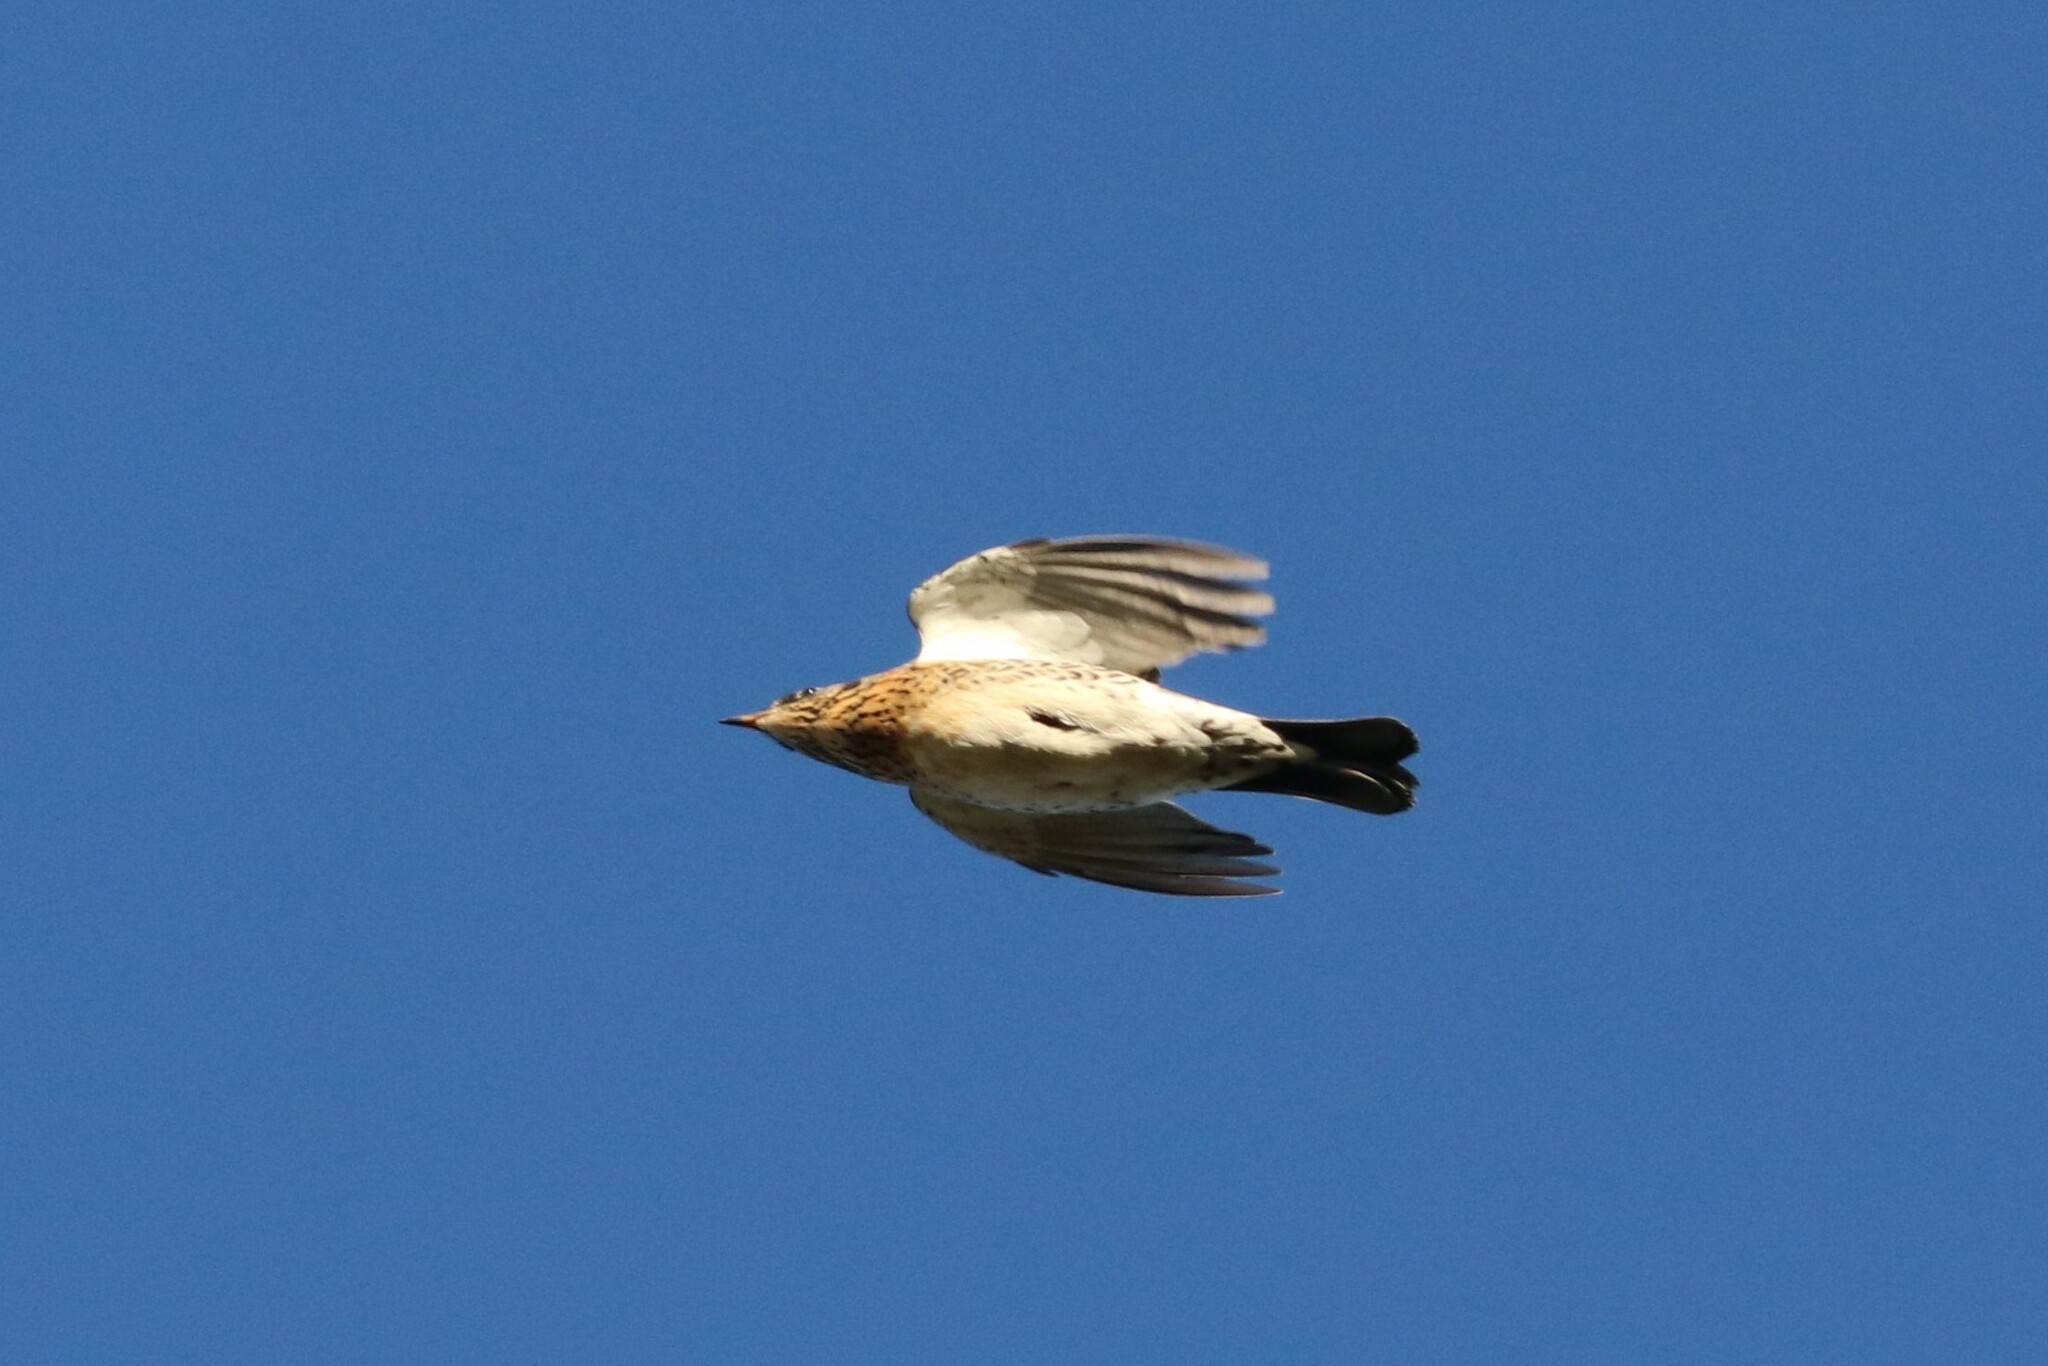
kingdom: Animalia
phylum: Chordata
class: Aves
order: Passeriformes
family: Turdidae
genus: Turdus
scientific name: Turdus pilaris
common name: Fieldfare
